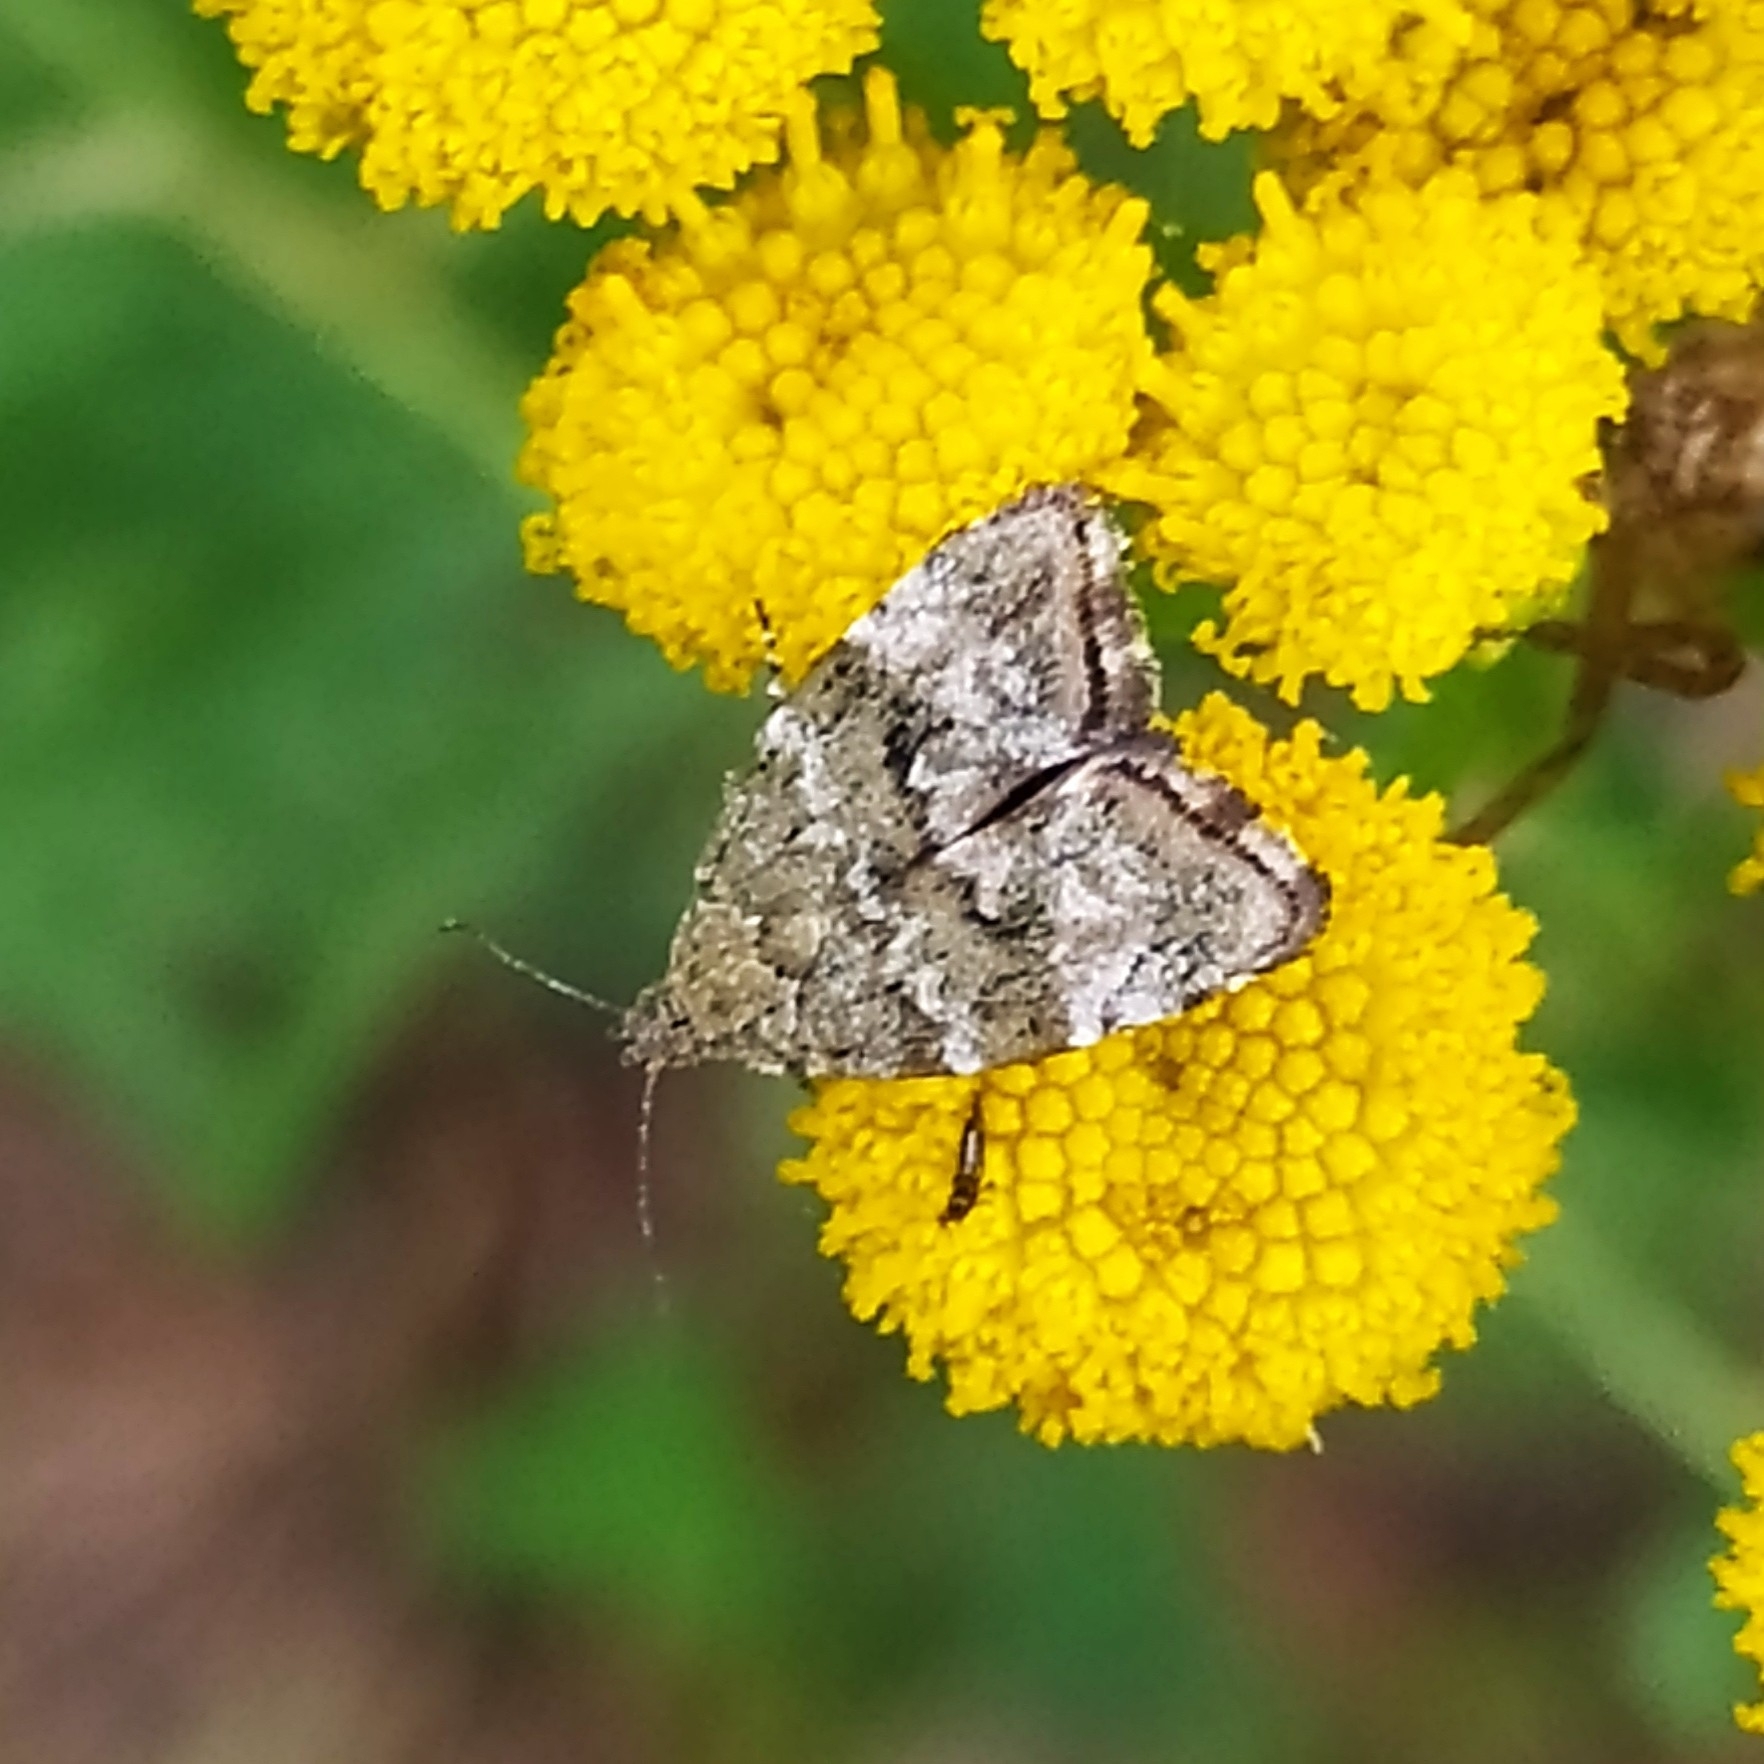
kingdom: Animalia
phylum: Arthropoda
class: Insecta
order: Lepidoptera
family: Choreutidae
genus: Choreutis
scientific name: Choreutis diana
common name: Inverness twitcher
